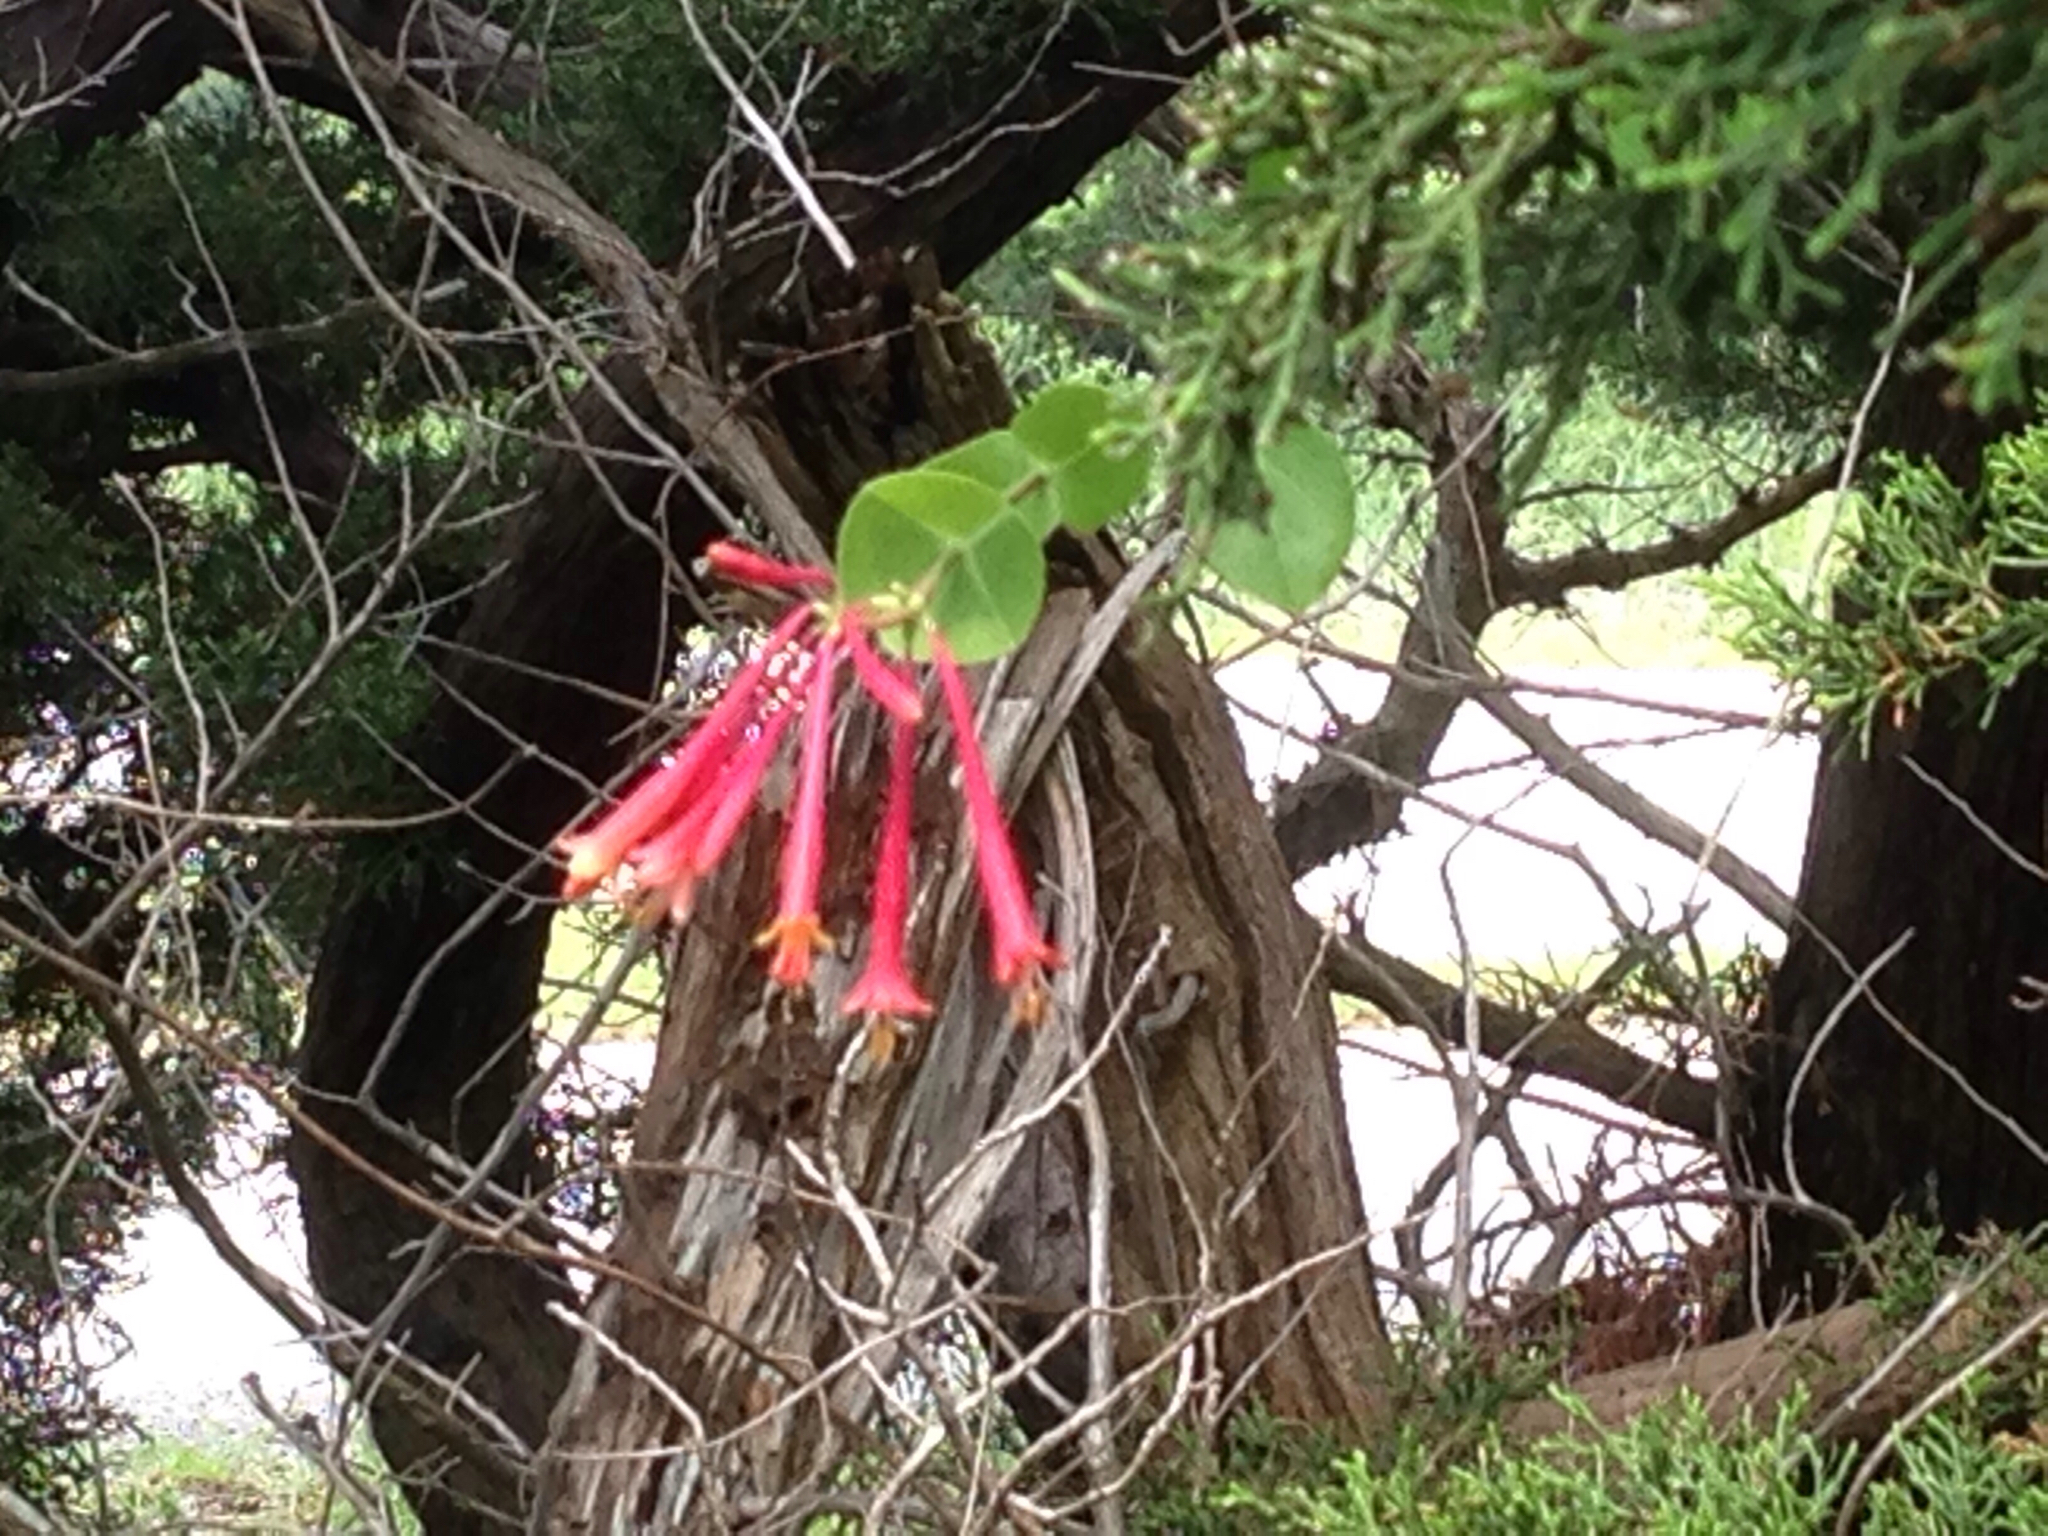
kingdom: Plantae
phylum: Tracheophyta
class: Magnoliopsida
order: Dipsacales
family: Caprifoliaceae
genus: Lonicera
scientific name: Lonicera sempervirens
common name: Coral honeysuckle
